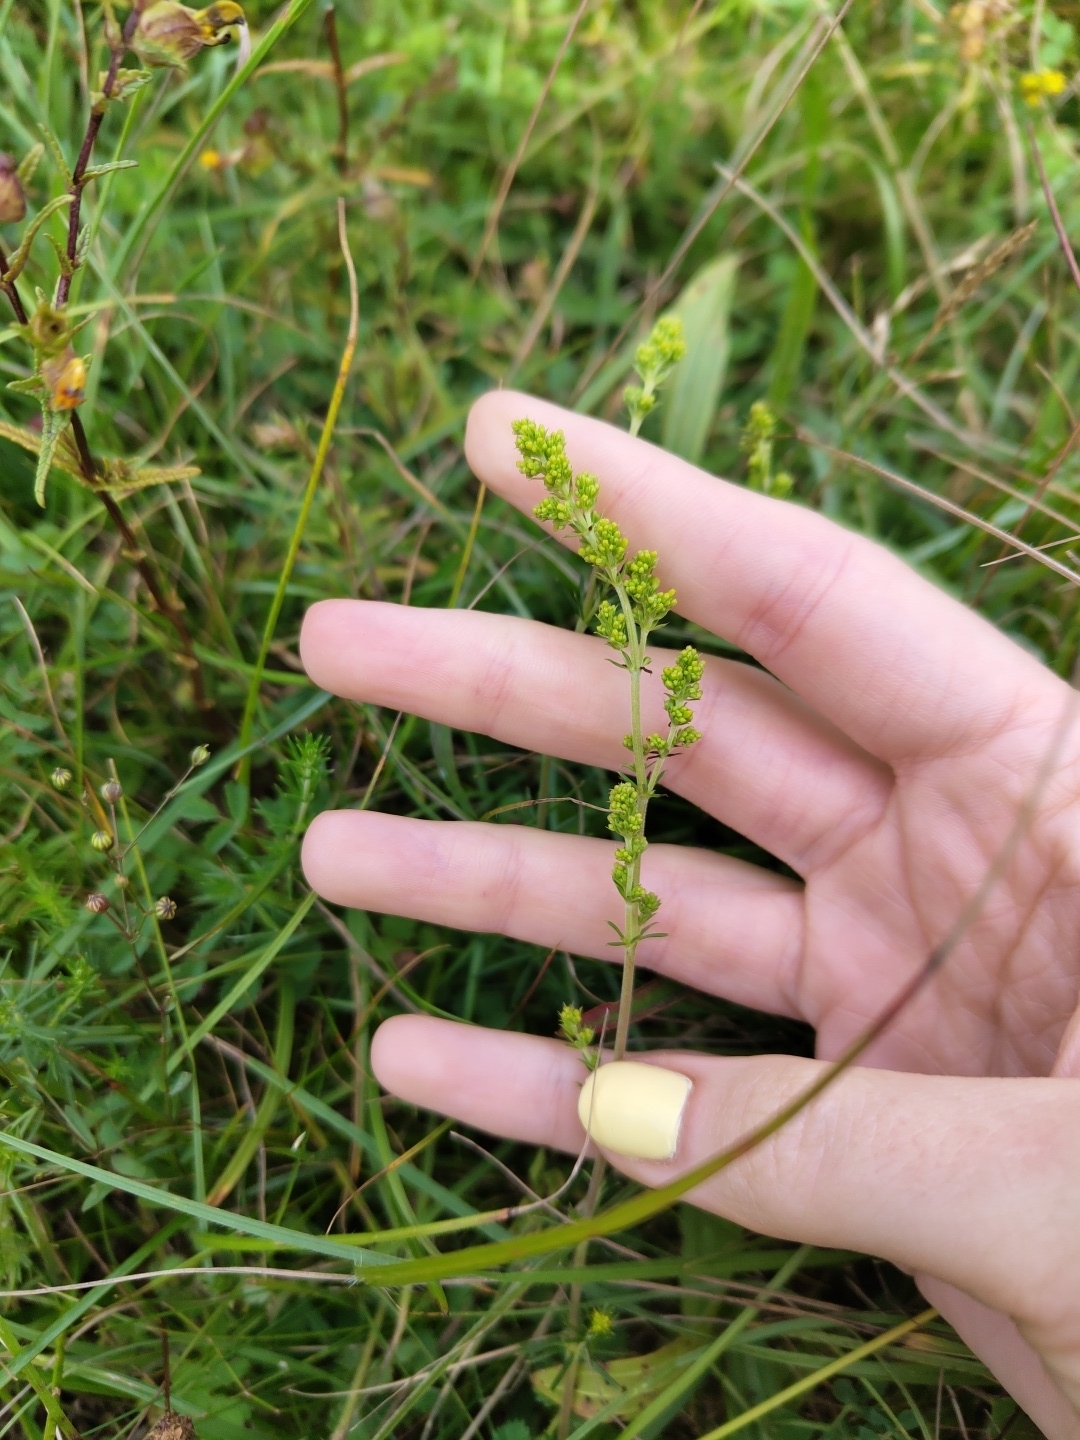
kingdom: Plantae
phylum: Tracheophyta
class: Magnoliopsida
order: Gentianales
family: Rubiaceae
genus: Galium
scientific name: Galium verum
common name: Lady's bedstraw
